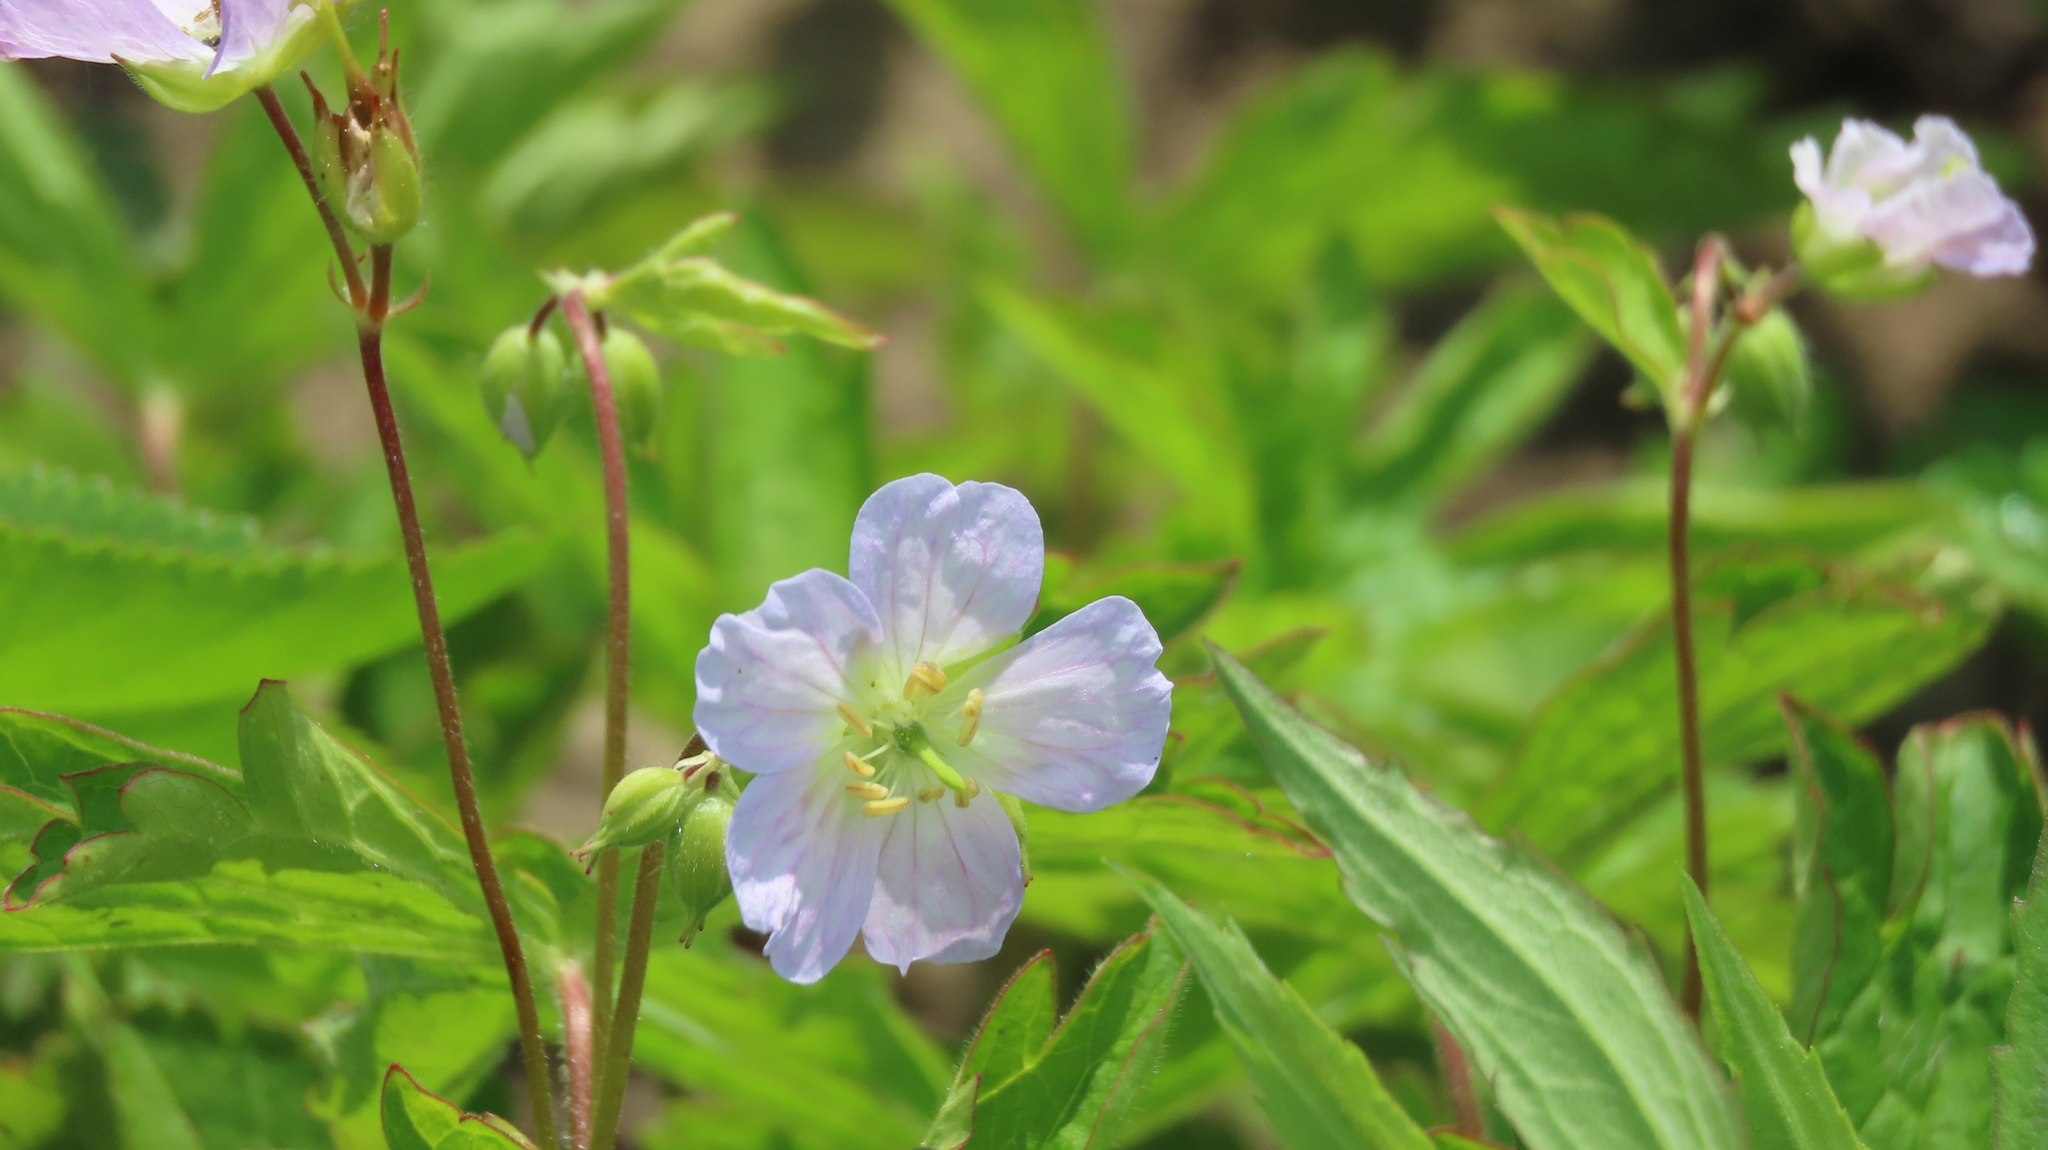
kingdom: Plantae
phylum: Tracheophyta
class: Magnoliopsida
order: Geraniales
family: Geraniaceae
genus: Geranium
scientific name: Geranium maculatum
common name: Spotted geranium
